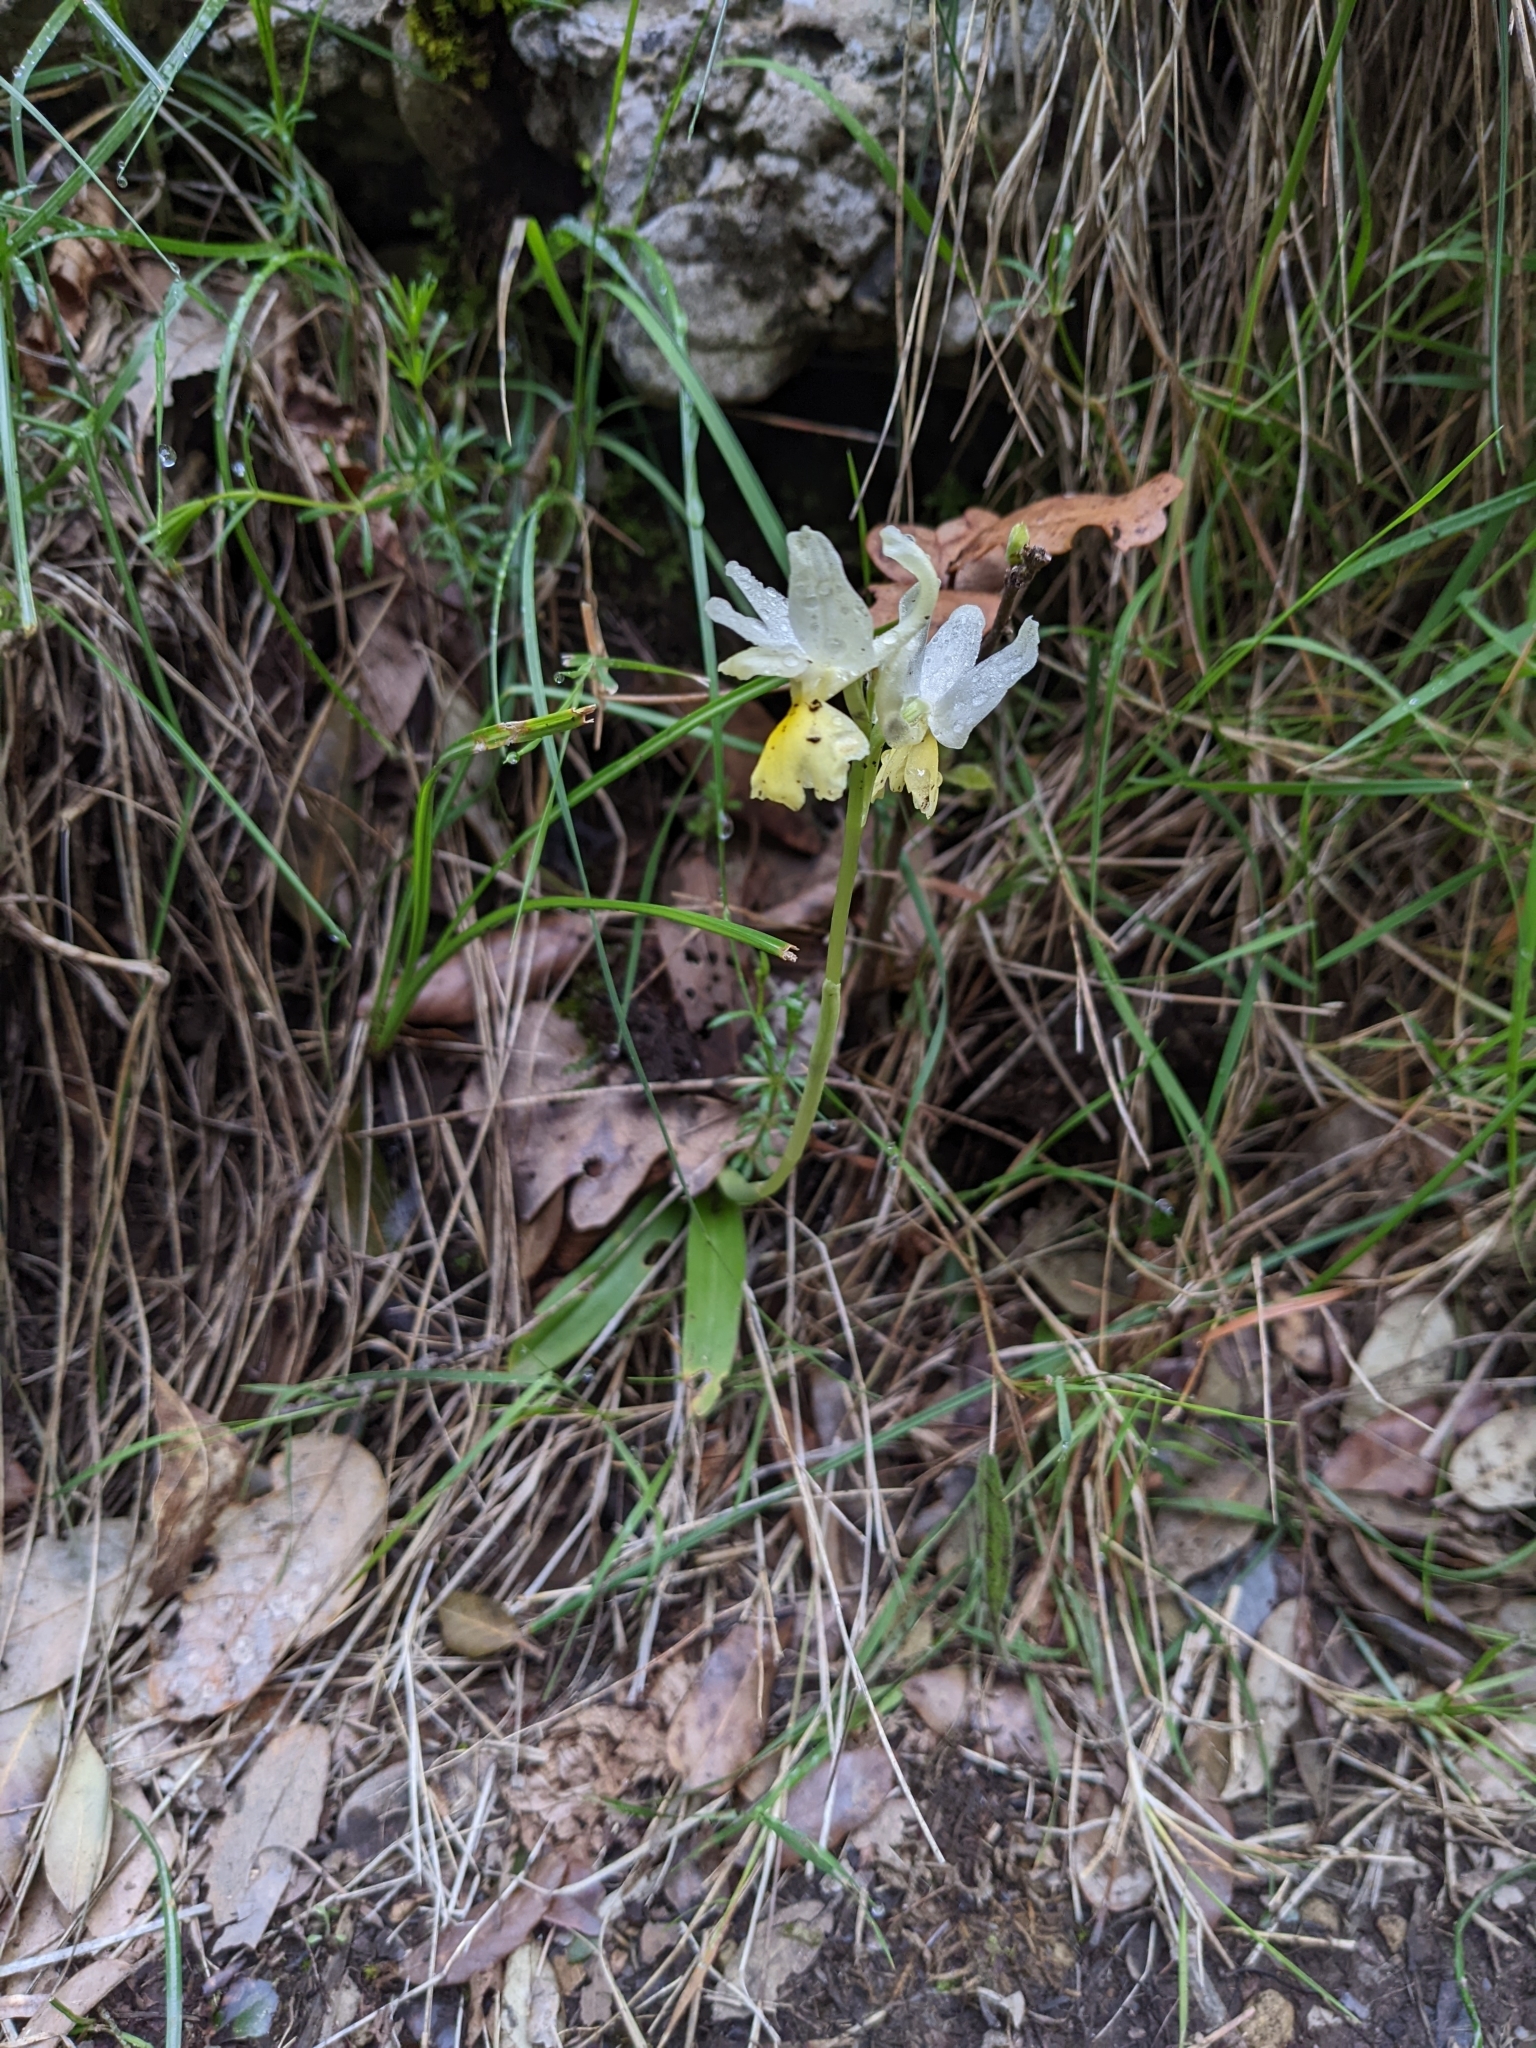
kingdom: Plantae
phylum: Tracheophyta
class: Liliopsida
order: Asparagales
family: Orchidaceae
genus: Orchis
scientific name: Orchis pauciflora
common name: Few-flowered orchid
